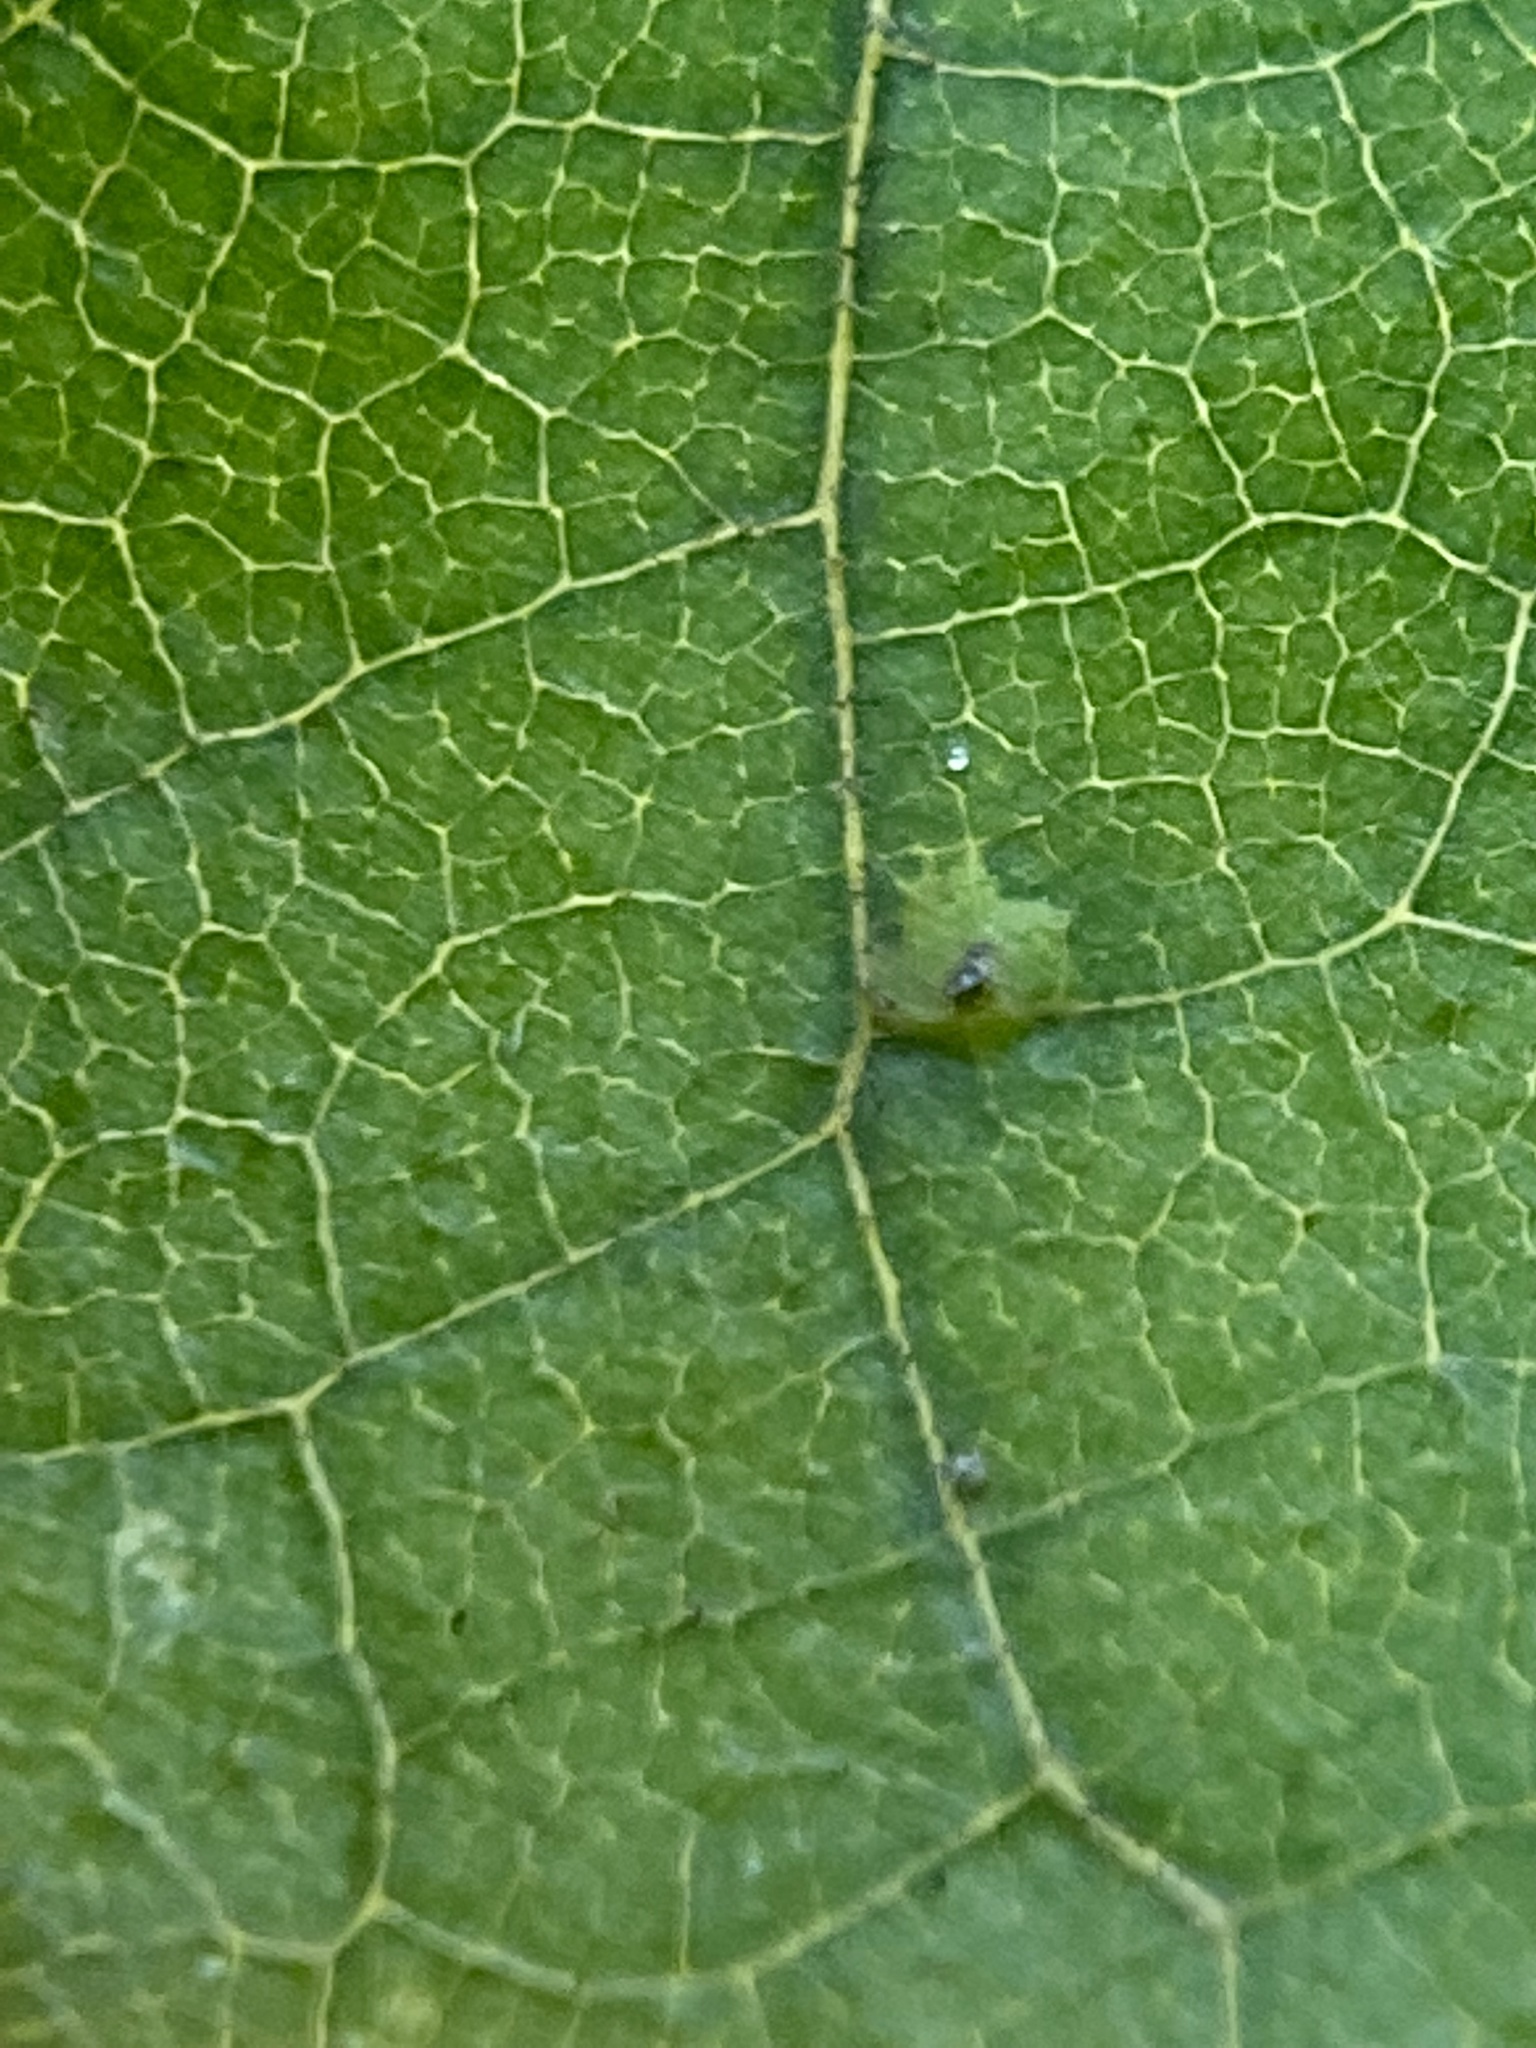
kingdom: Animalia
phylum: Arthropoda
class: Insecta
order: Diptera
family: Cecidomyiidae
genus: Caryomyia
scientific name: Caryomyia flaticrustum
